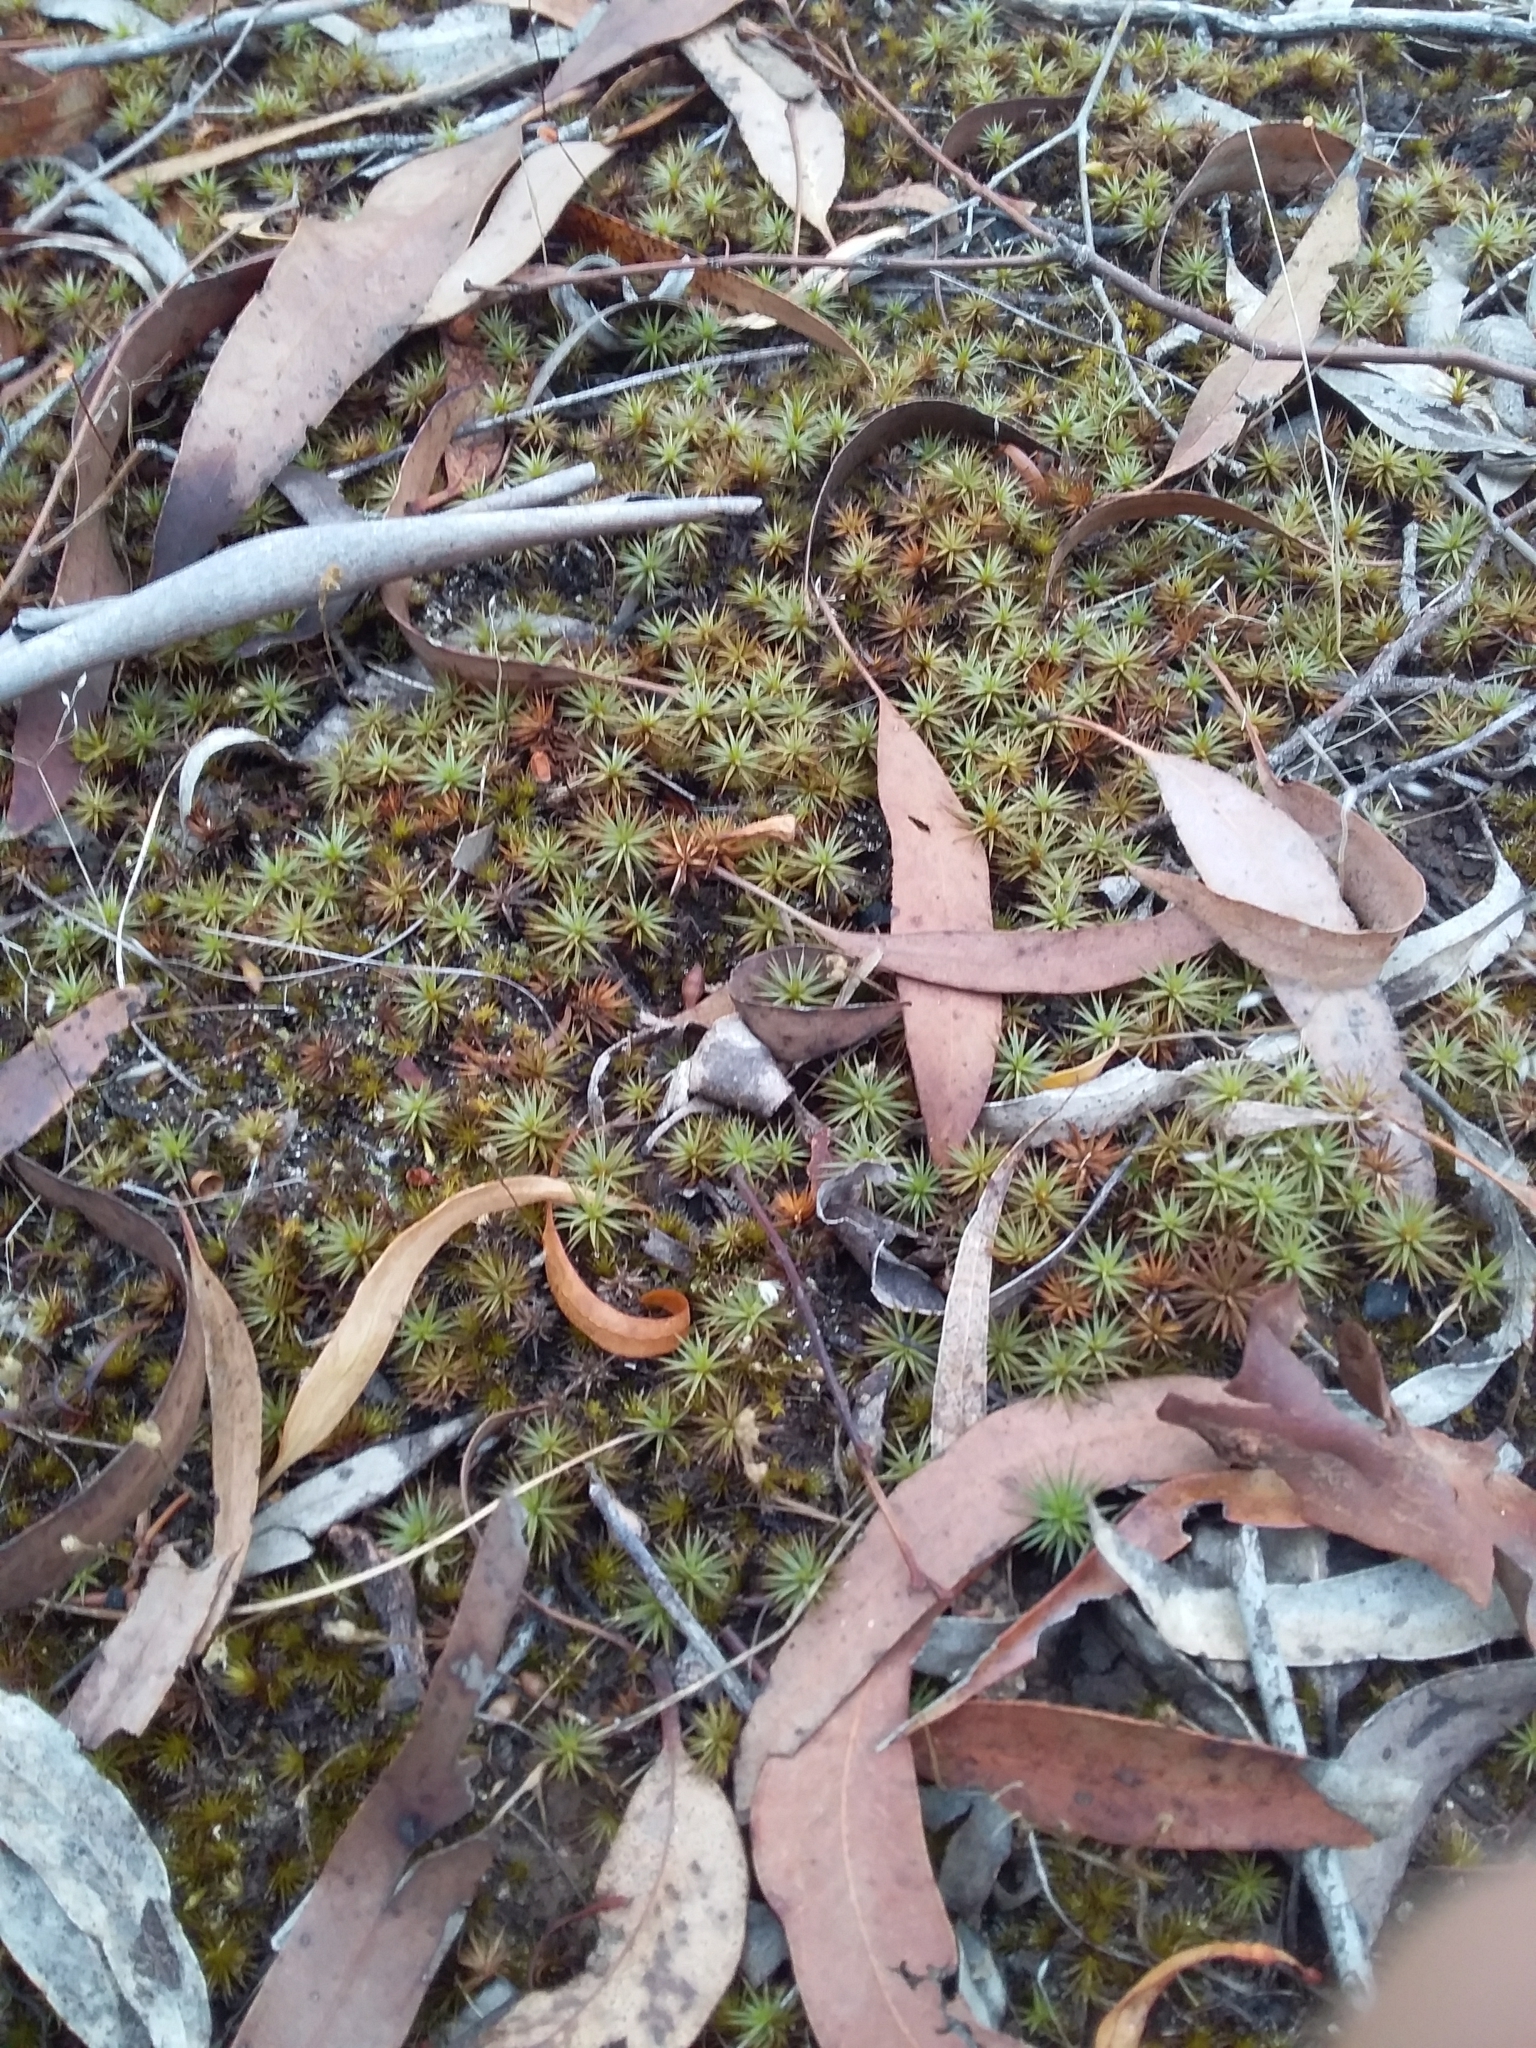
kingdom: Plantae
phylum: Bryophyta
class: Polytrichopsida
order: Polytrichales
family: Polytrichaceae
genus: Polytrichum
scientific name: Polytrichum juniperinum
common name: Juniper haircap moss
